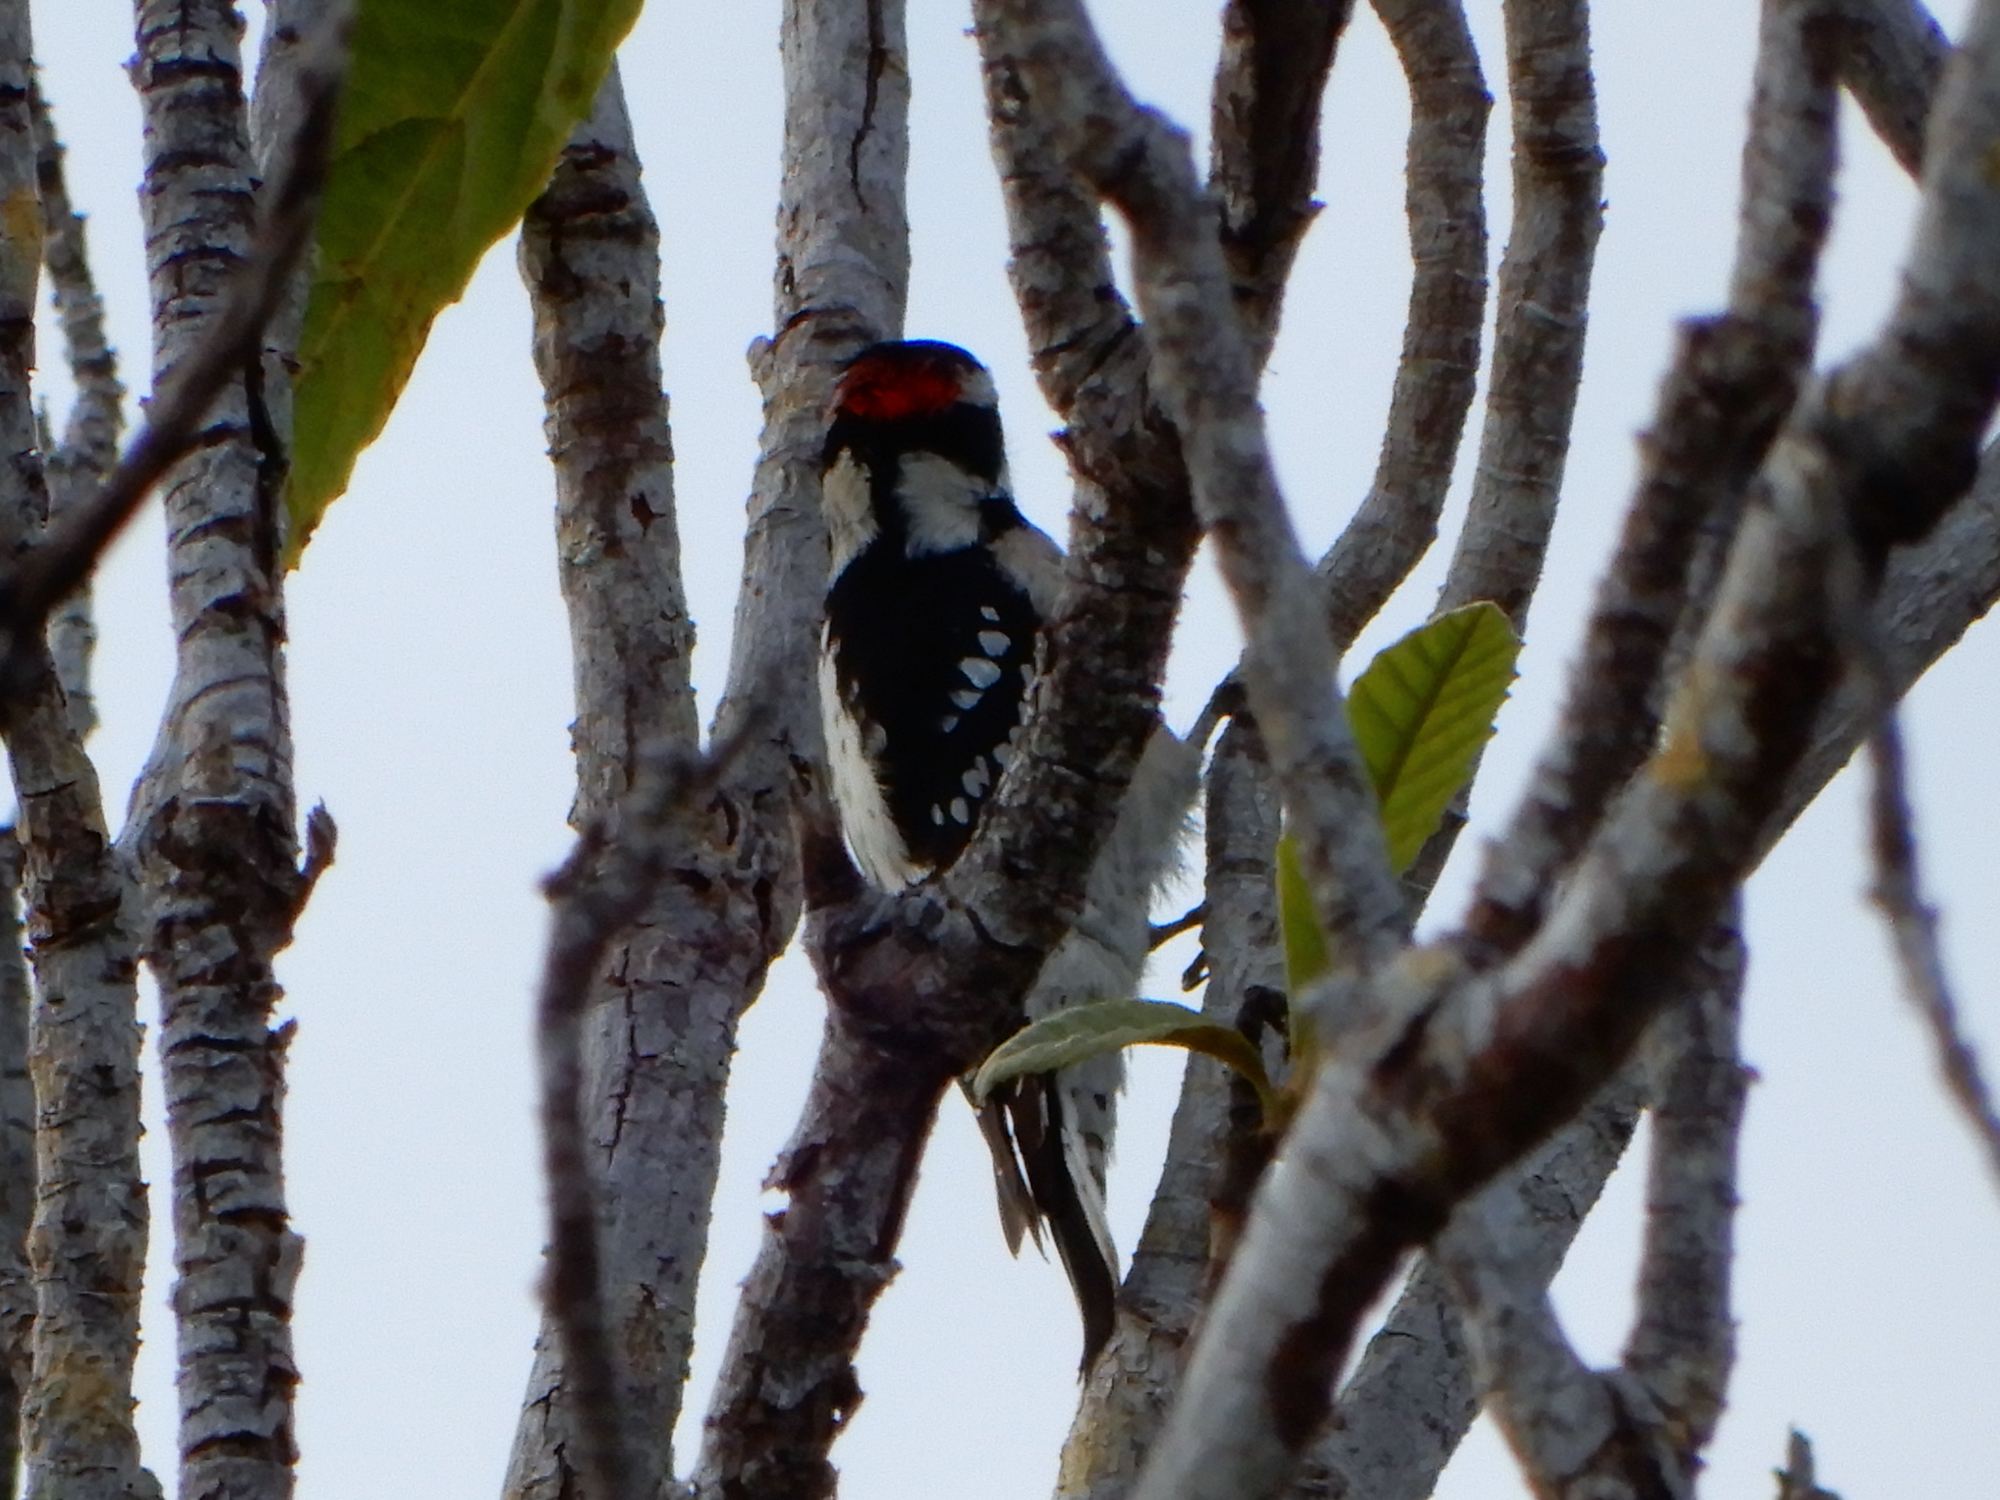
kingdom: Animalia
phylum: Chordata
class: Aves
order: Piciformes
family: Picidae
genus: Dryobates
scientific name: Dryobates pubescens
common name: Downy woodpecker
